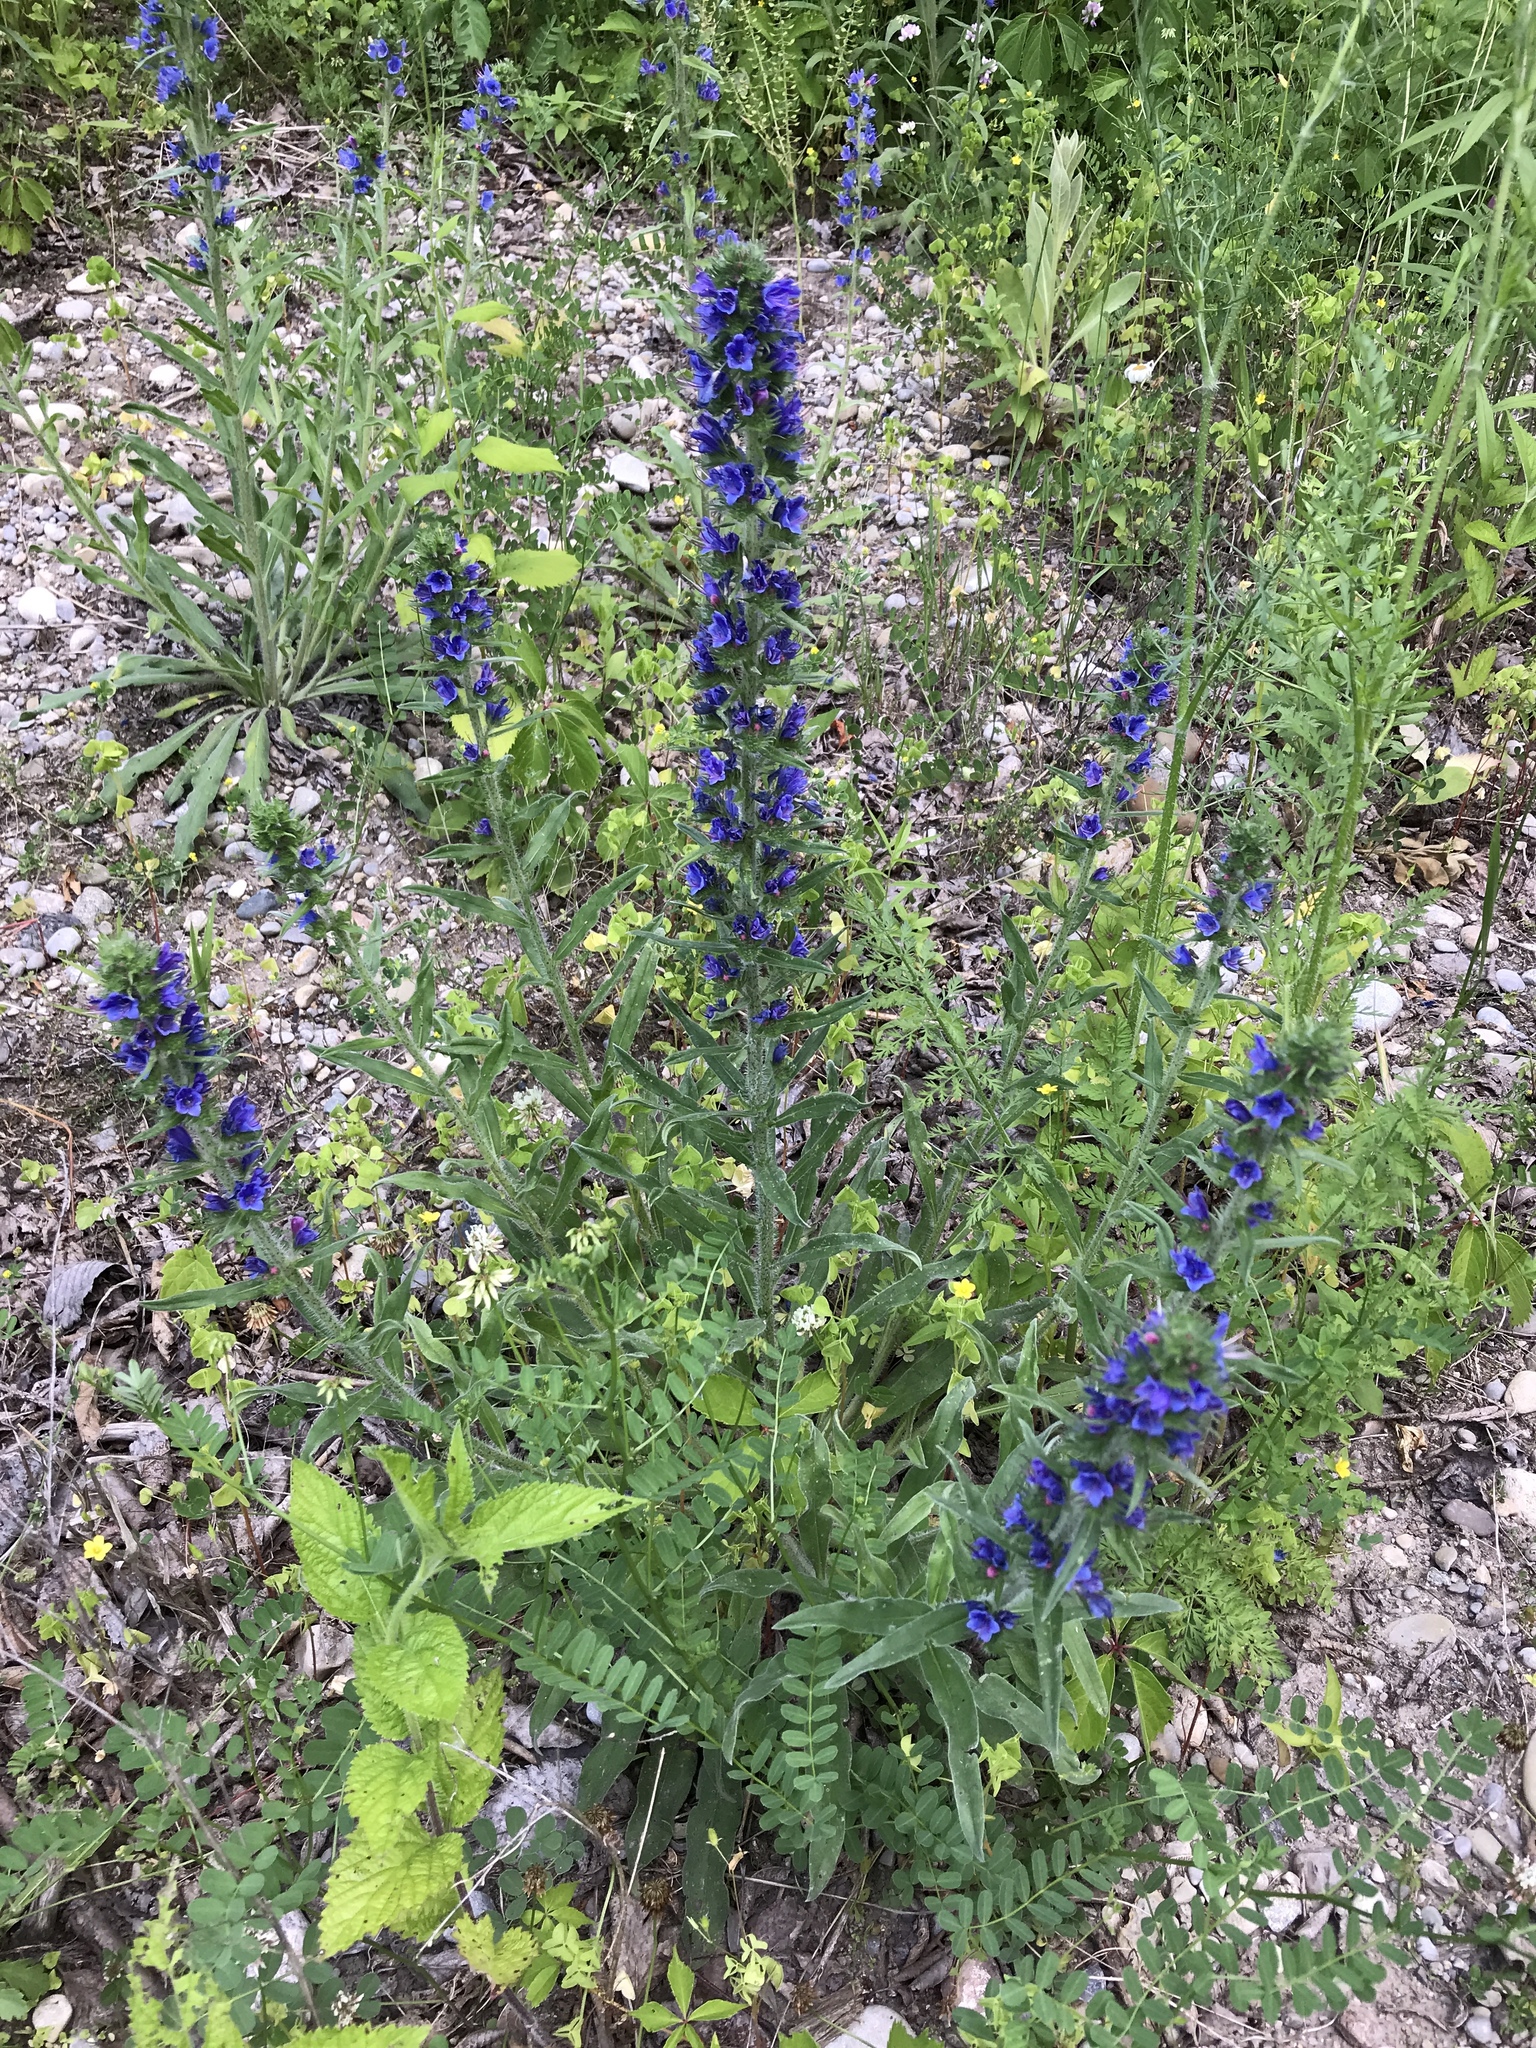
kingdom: Plantae
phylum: Tracheophyta
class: Magnoliopsida
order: Boraginales
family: Boraginaceae
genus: Echium
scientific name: Echium vulgare
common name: Common viper's bugloss
